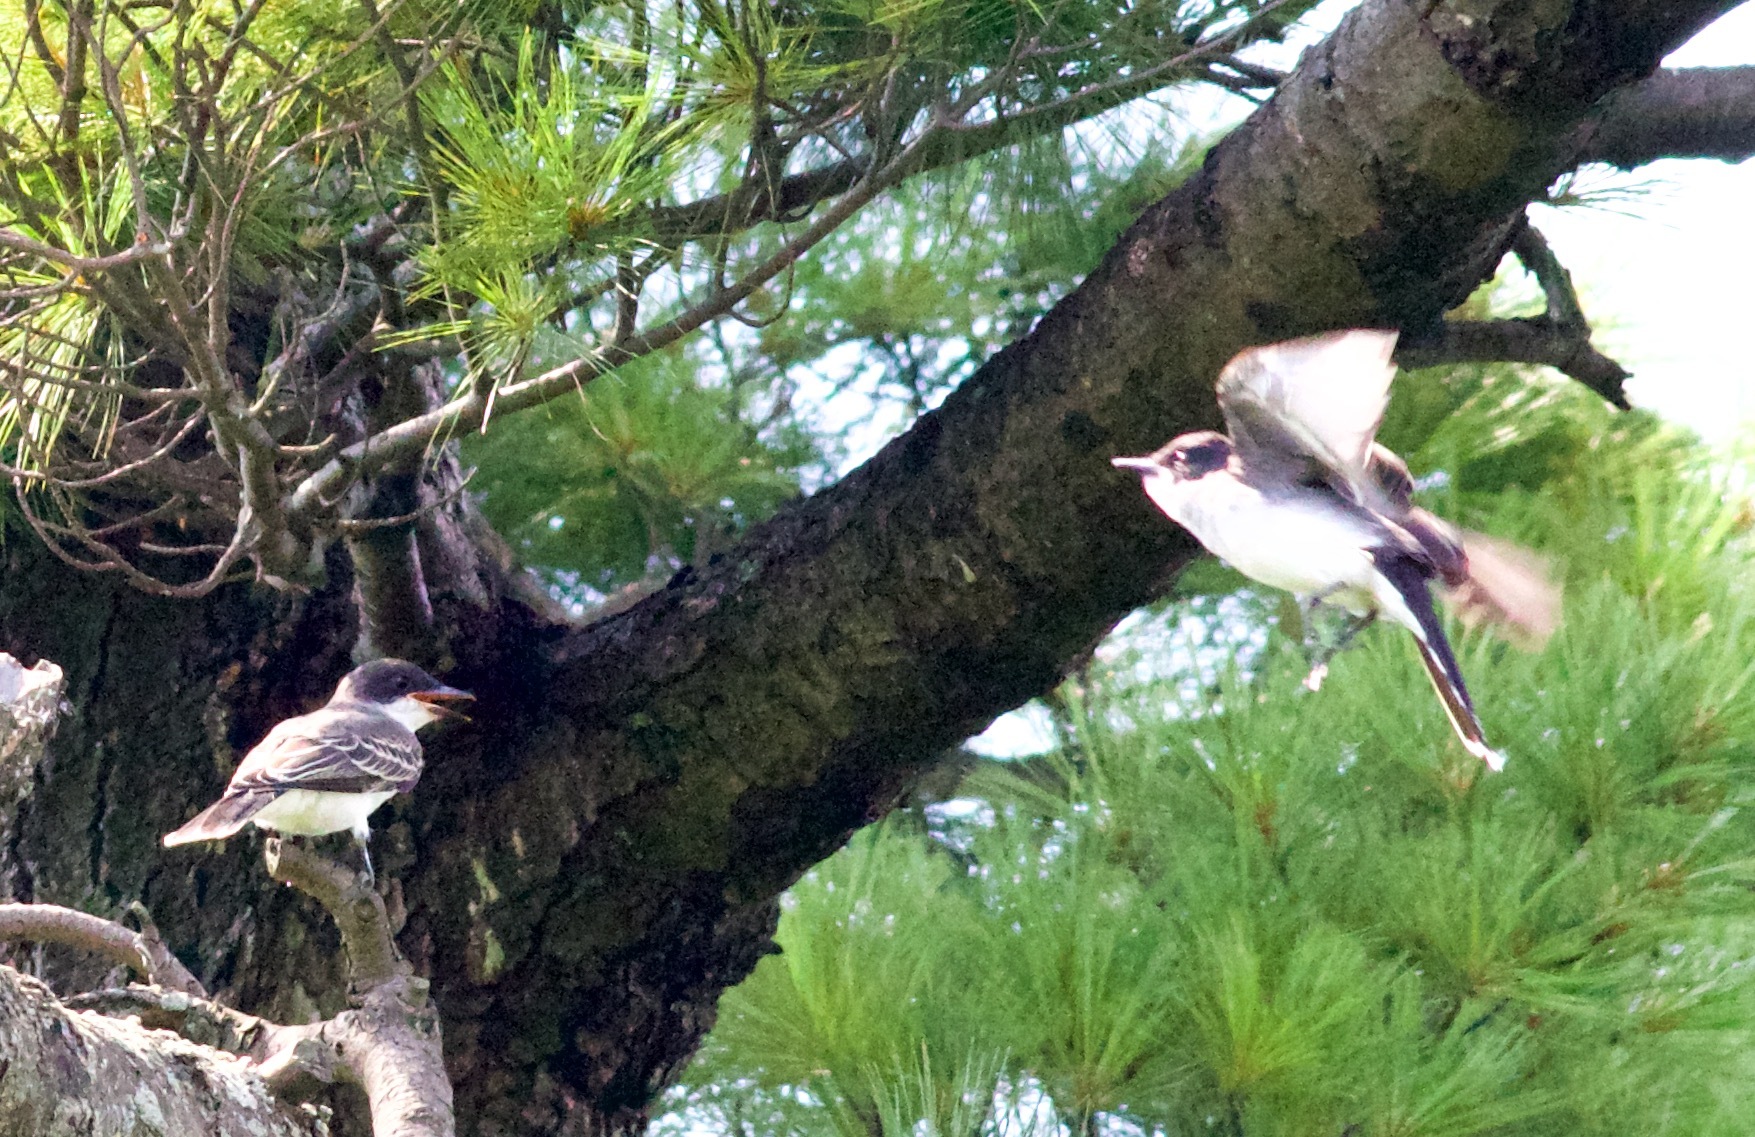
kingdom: Animalia
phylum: Chordata
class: Aves
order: Passeriformes
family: Tyrannidae
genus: Tyrannus
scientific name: Tyrannus tyrannus
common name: Eastern kingbird
